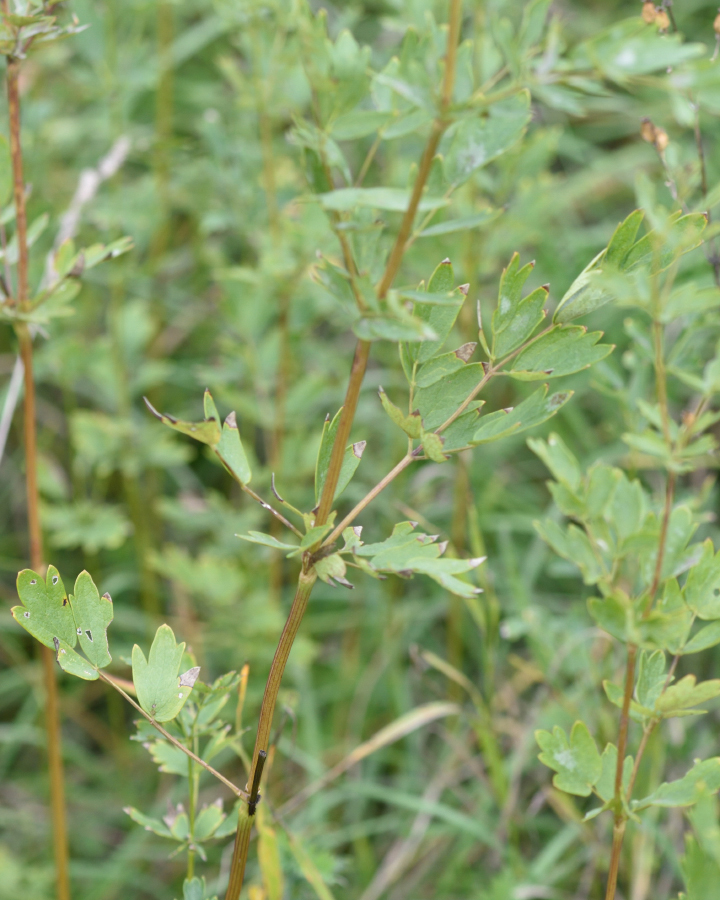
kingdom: Plantae
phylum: Tracheophyta
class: Magnoliopsida
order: Ranunculales
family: Ranunculaceae
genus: Thalictrum
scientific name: Thalictrum simplex
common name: Small meadow-rue
